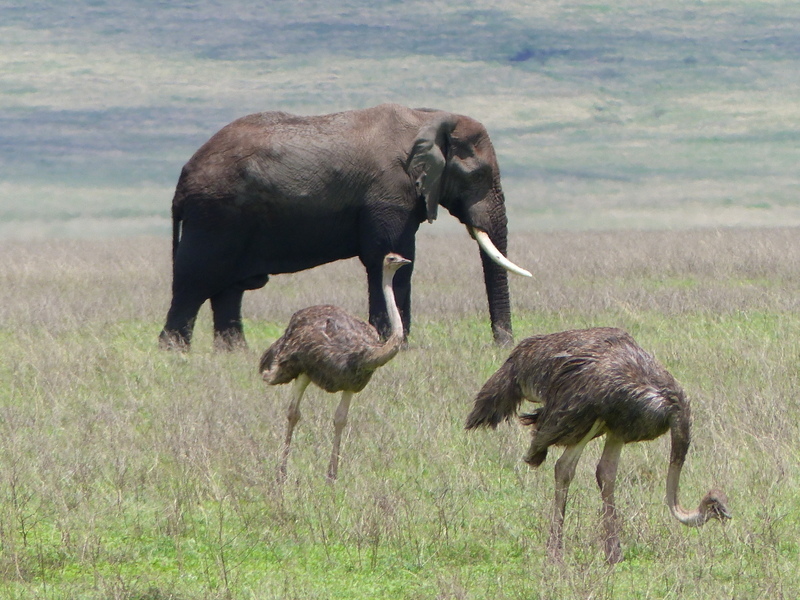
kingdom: Animalia
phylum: Chordata
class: Mammalia
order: Proboscidea
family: Elephantidae
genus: Loxodonta
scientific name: Loxodonta africana
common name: African elephant
